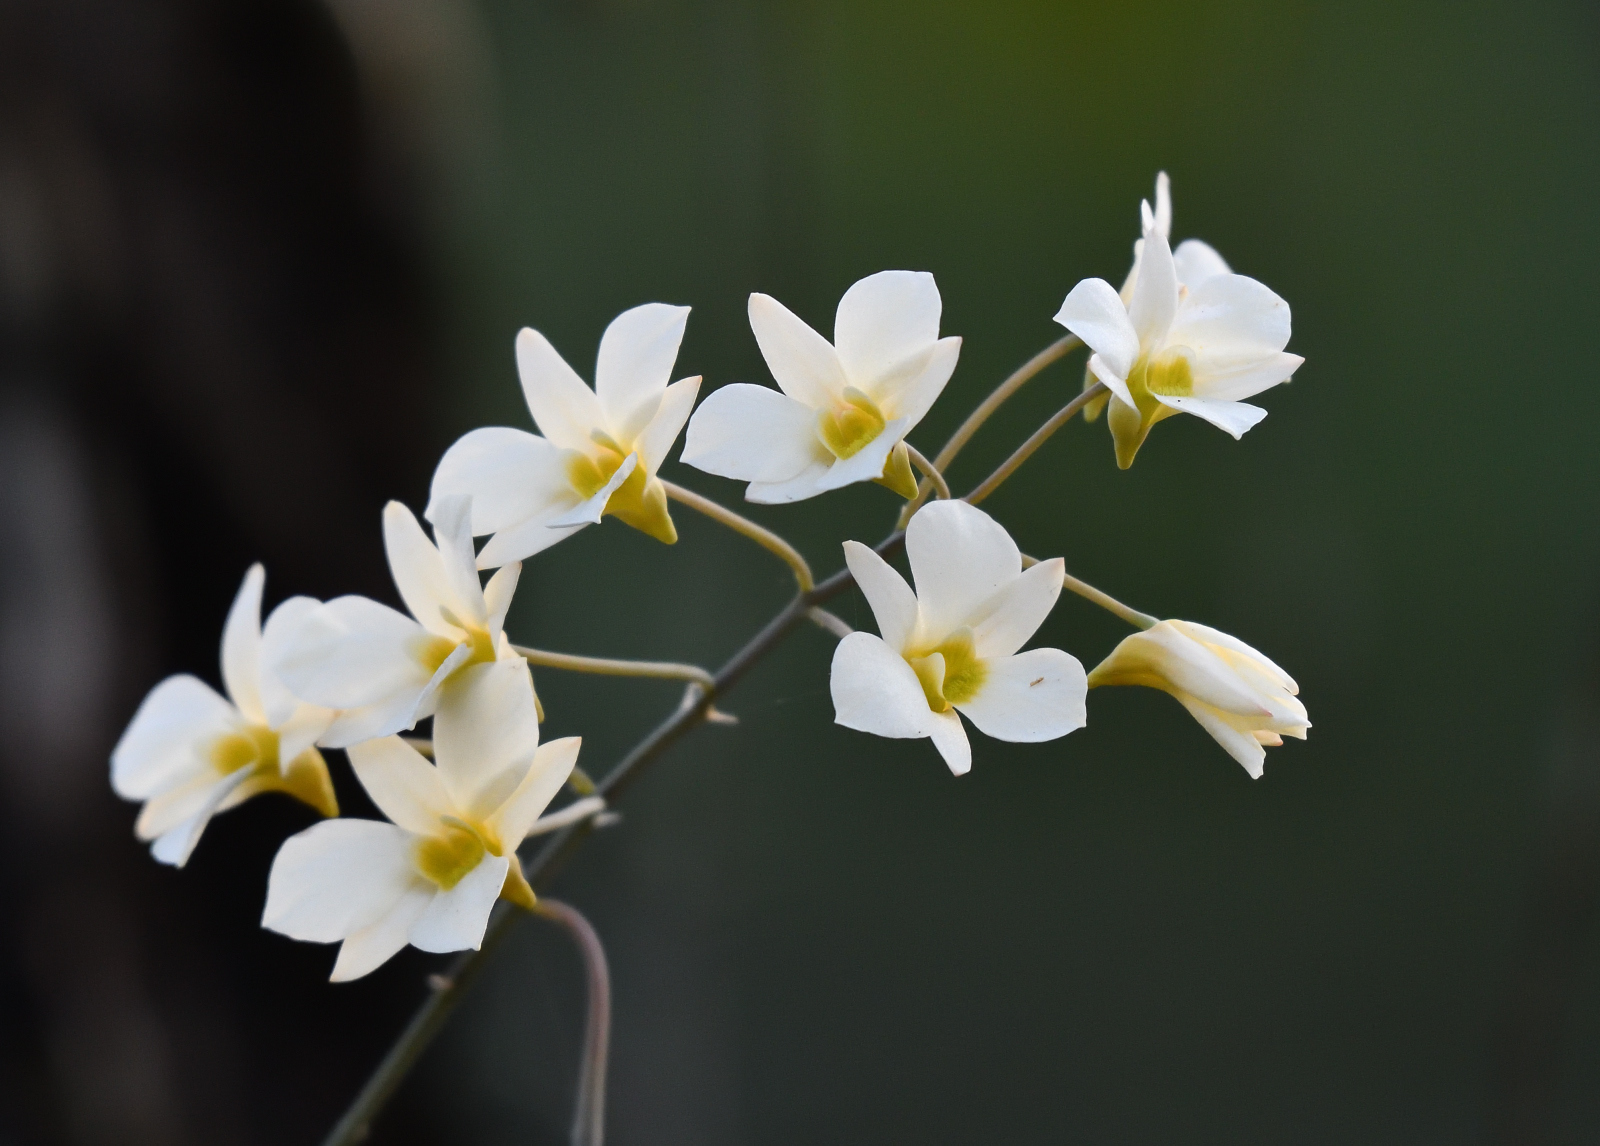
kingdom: Plantae
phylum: Tracheophyta
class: Liliopsida
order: Asparagales
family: Orchidaceae
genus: Dendrobium
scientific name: Dendrobium ovatum
